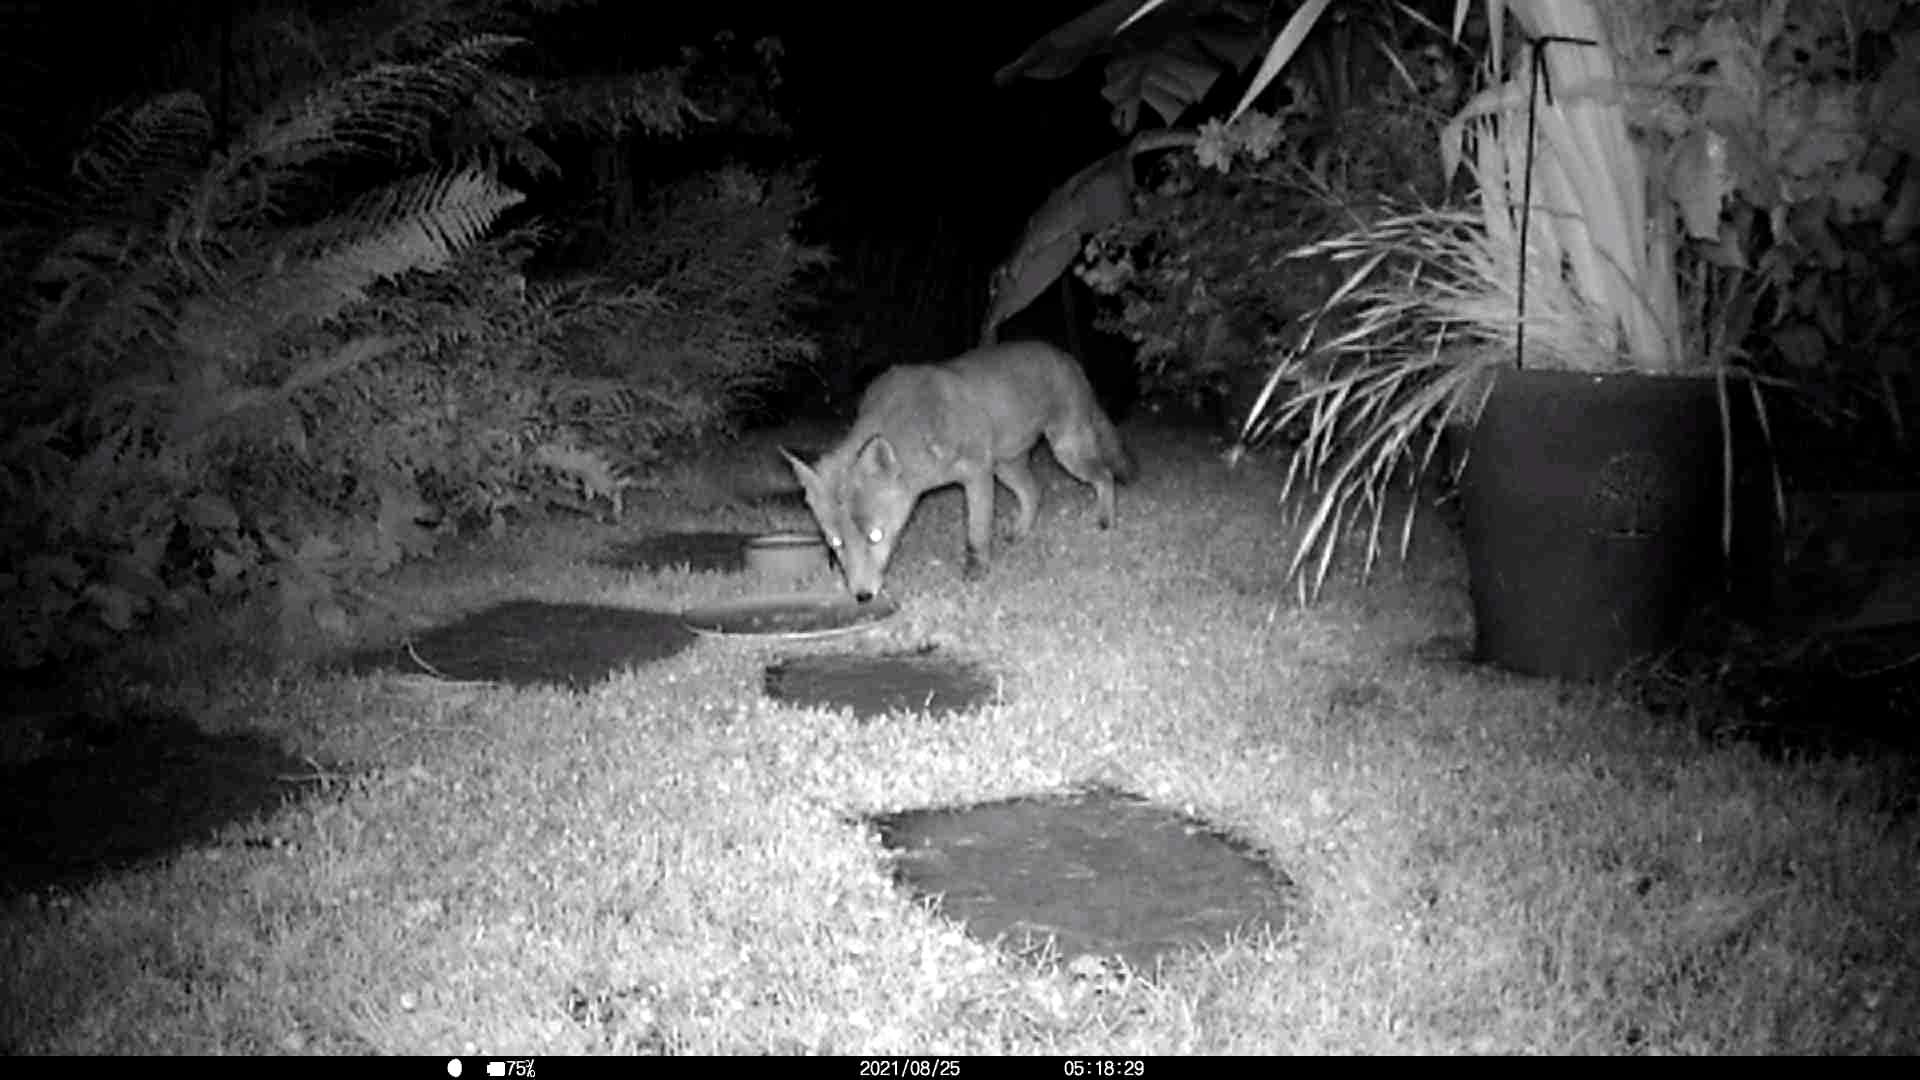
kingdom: Animalia
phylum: Chordata
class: Mammalia
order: Carnivora
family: Canidae
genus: Vulpes
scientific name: Vulpes vulpes
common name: Red fox
